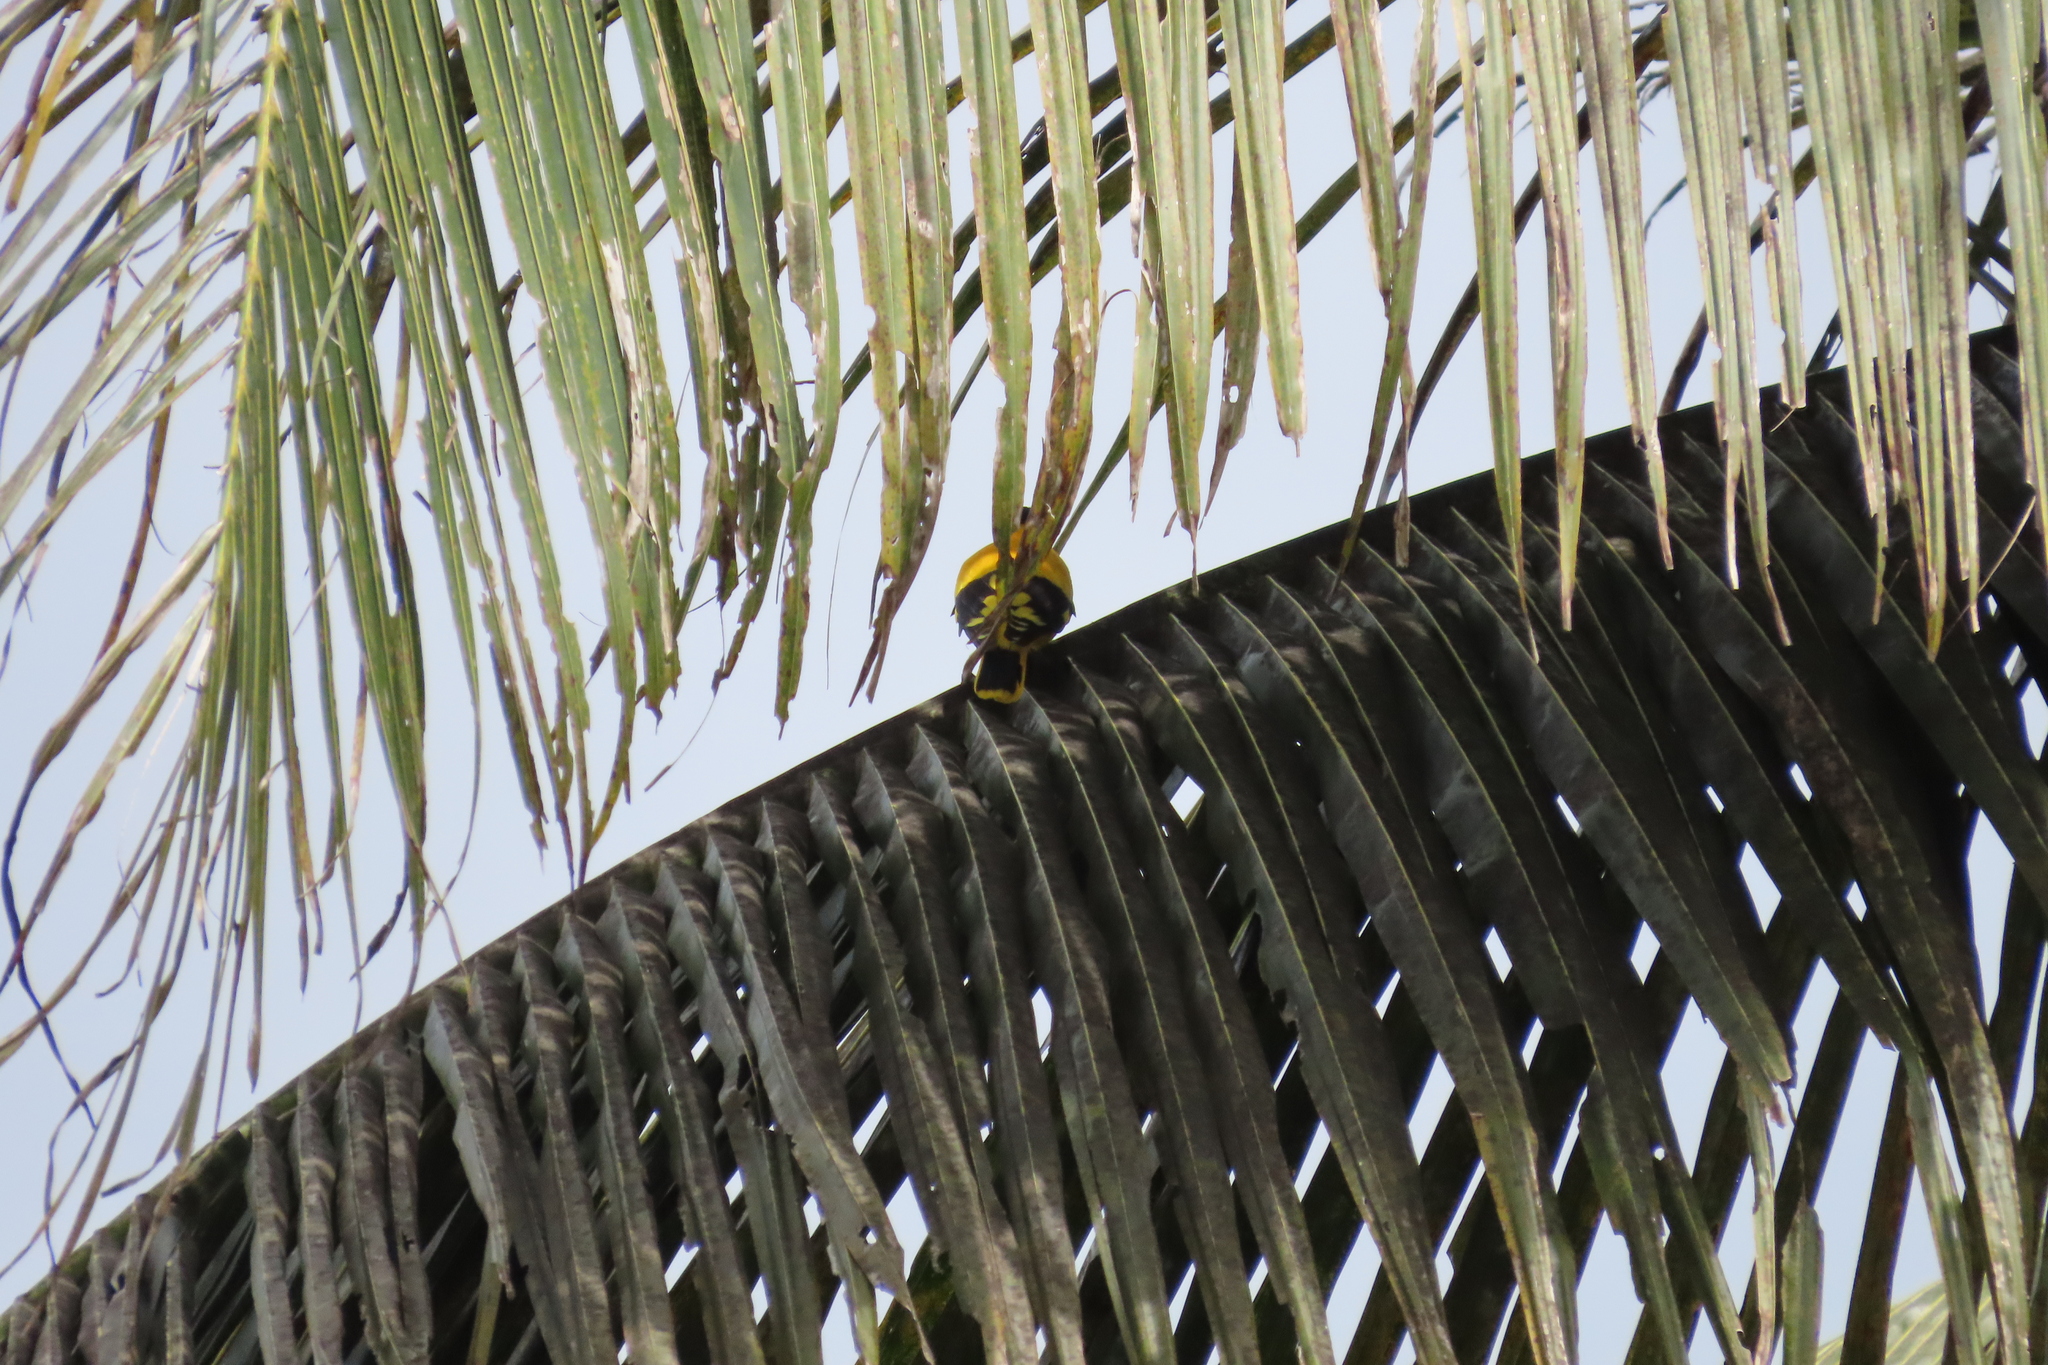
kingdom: Animalia
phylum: Chordata
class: Aves
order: Passeriformes
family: Oriolidae
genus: Oriolus
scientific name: Oriolus xanthornus
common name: Black-hooded oriole
